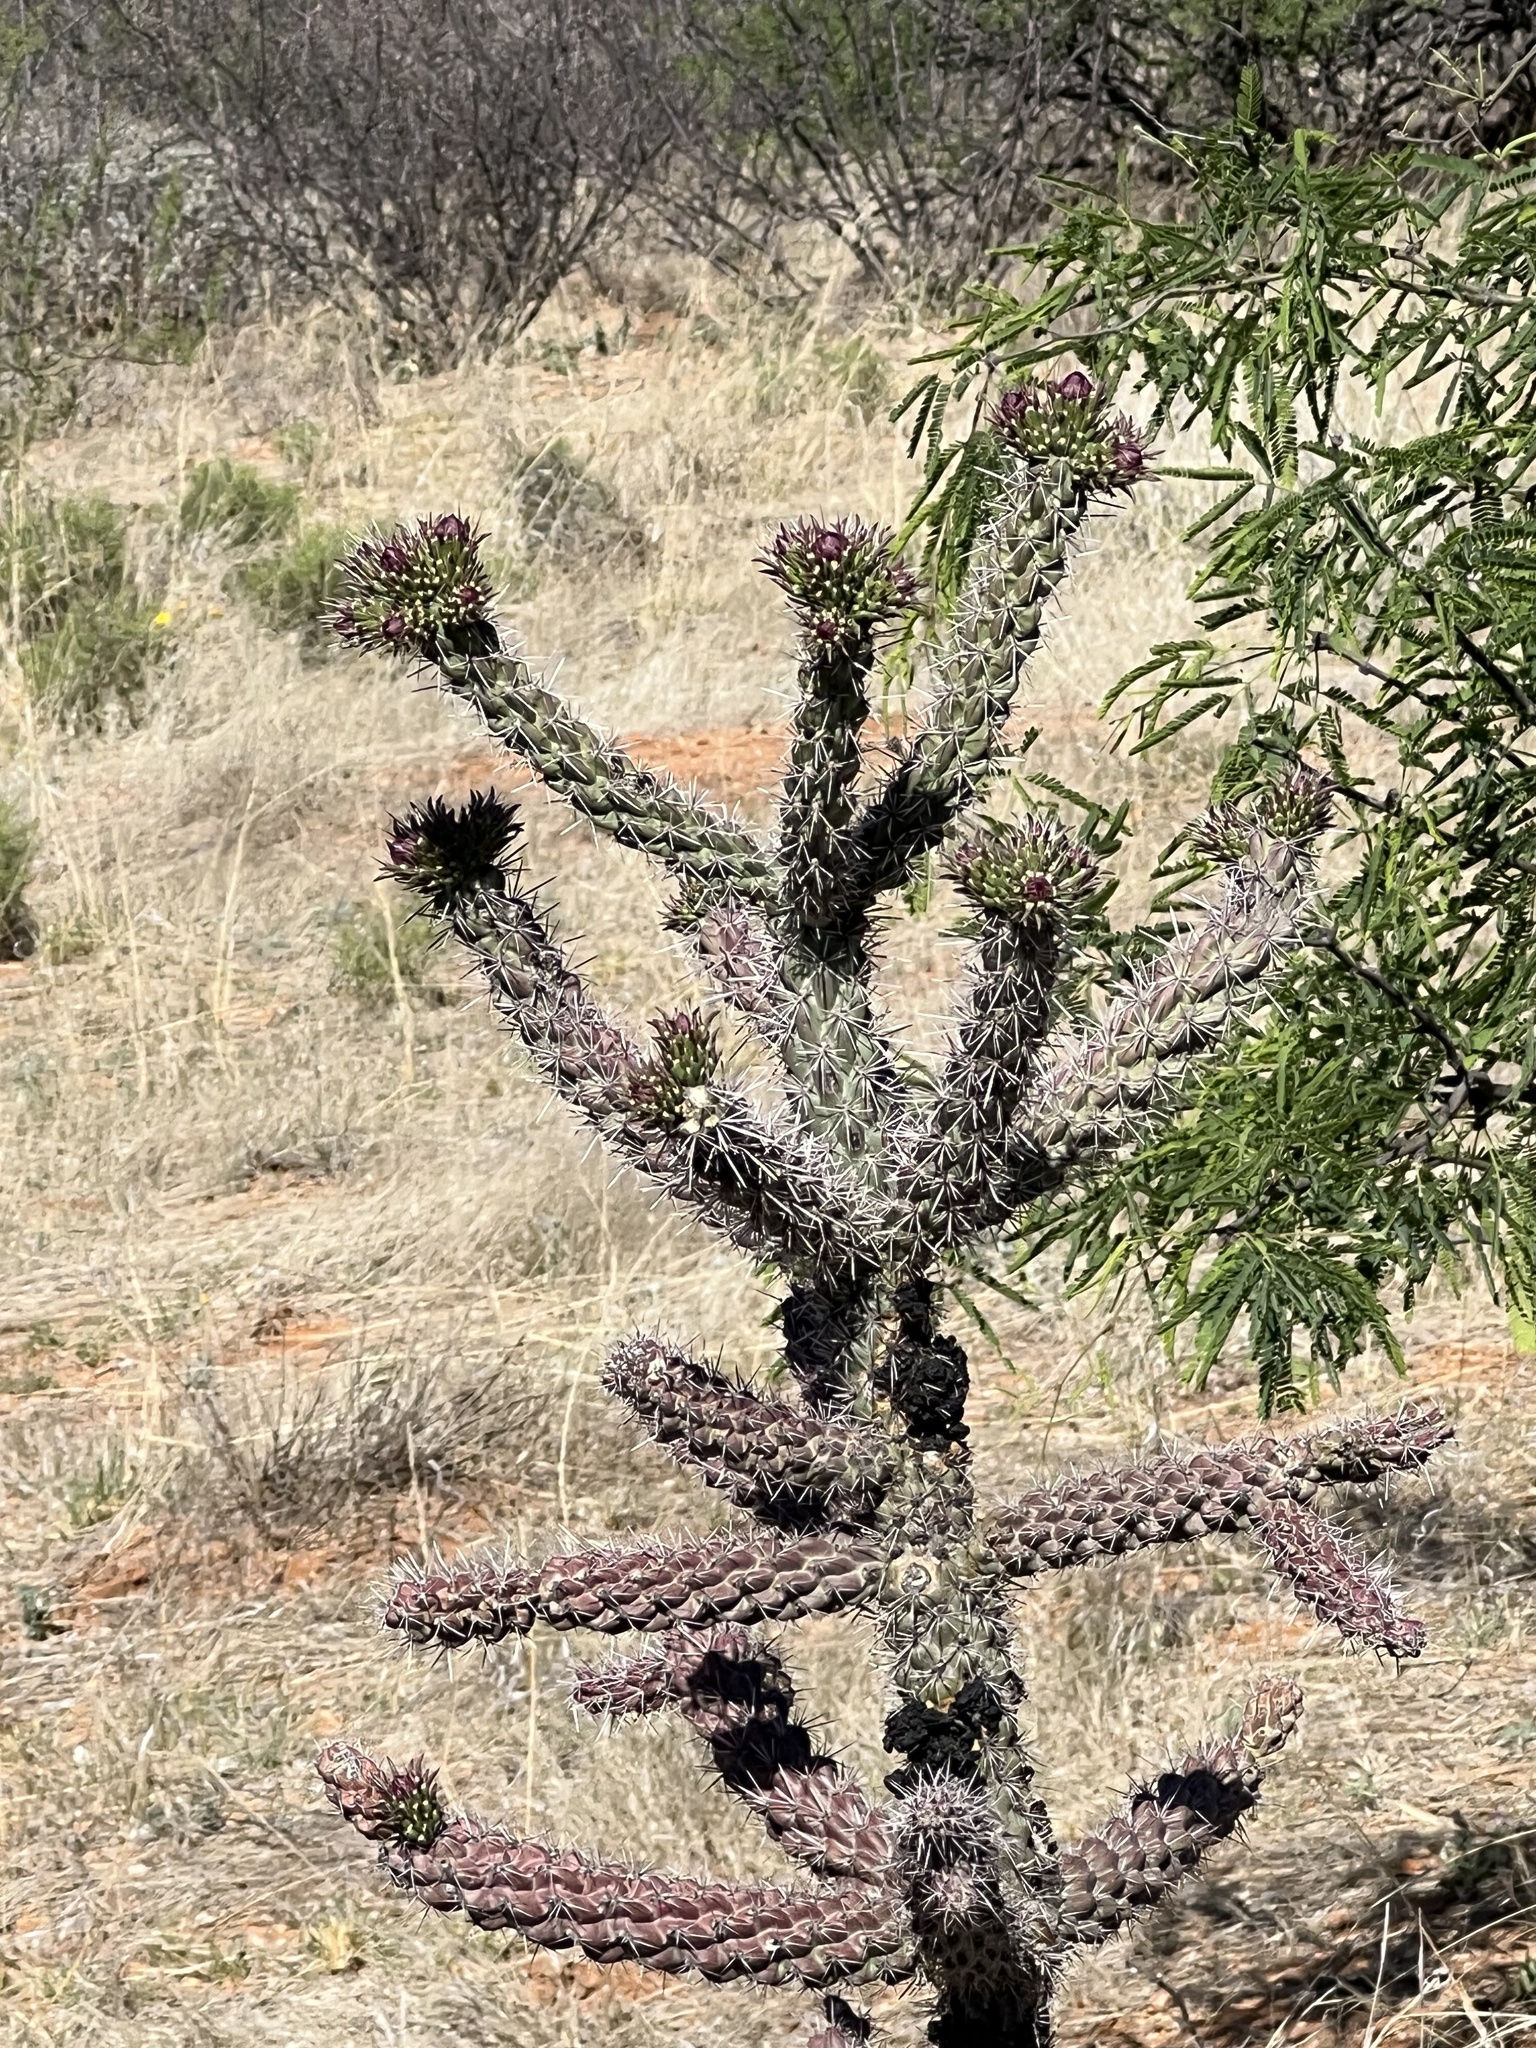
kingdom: Plantae
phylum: Tracheophyta
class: Magnoliopsida
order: Caryophyllales
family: Cactaceae
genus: Cylindropuntia
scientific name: Cylindropuntia imbricata
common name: Candelabrum cactus
